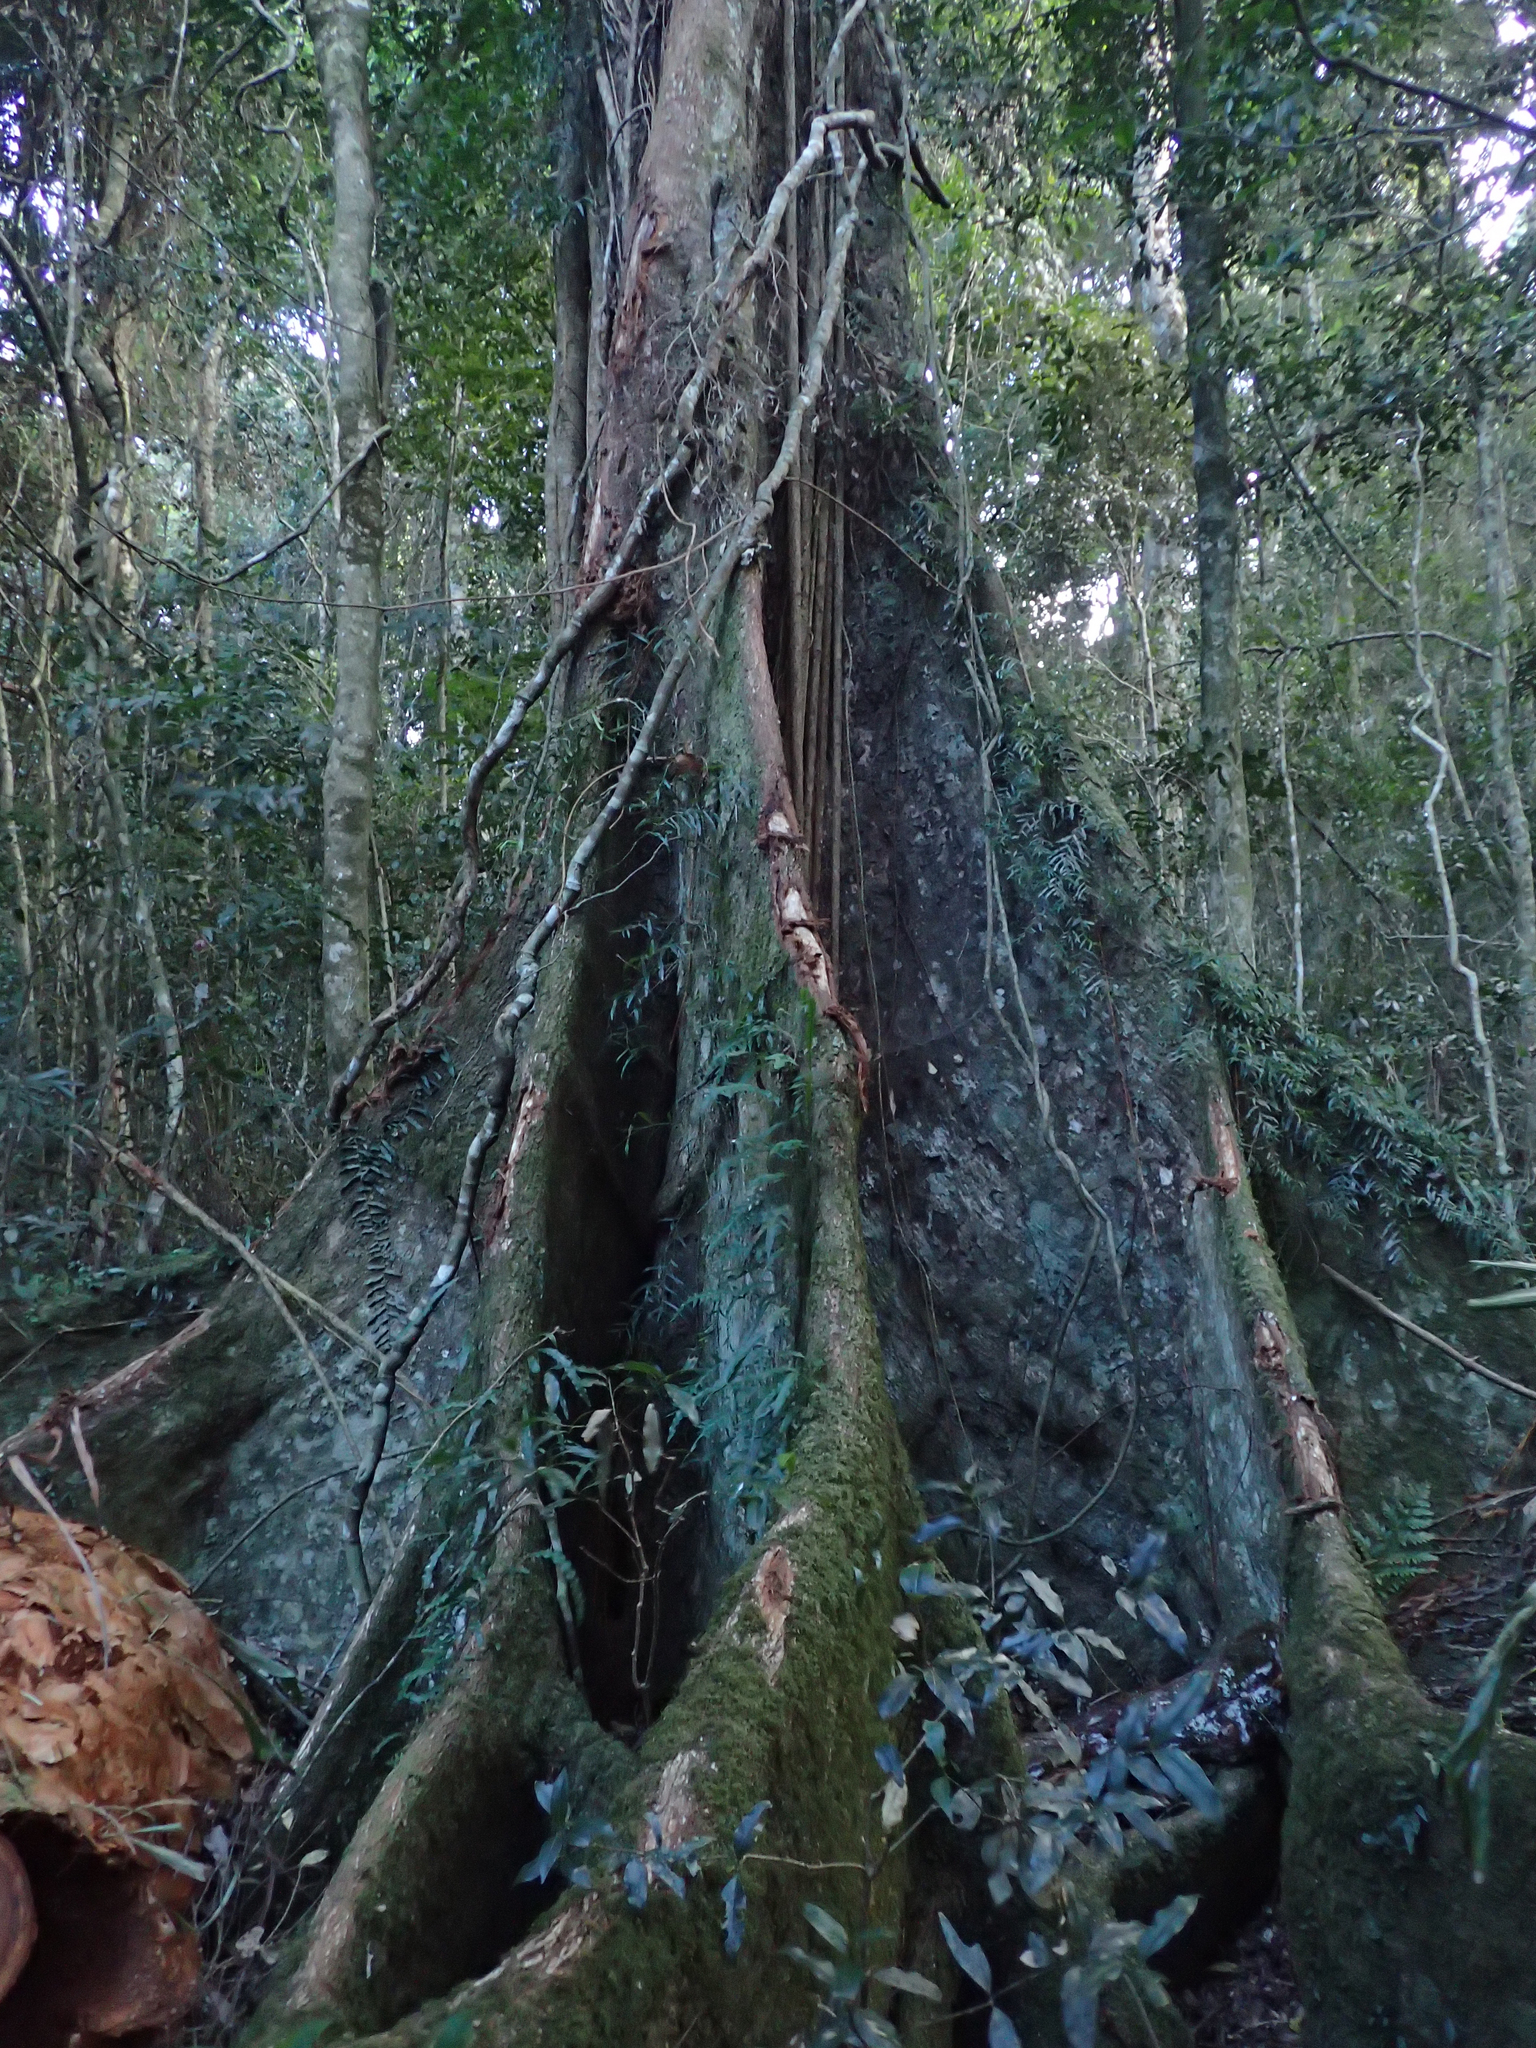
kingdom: Plantae
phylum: Tracheophyta
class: Magnoliopsida
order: Malvales
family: Malvaceae
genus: Argyrodendron
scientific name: Argyrodendron actinophyllum
